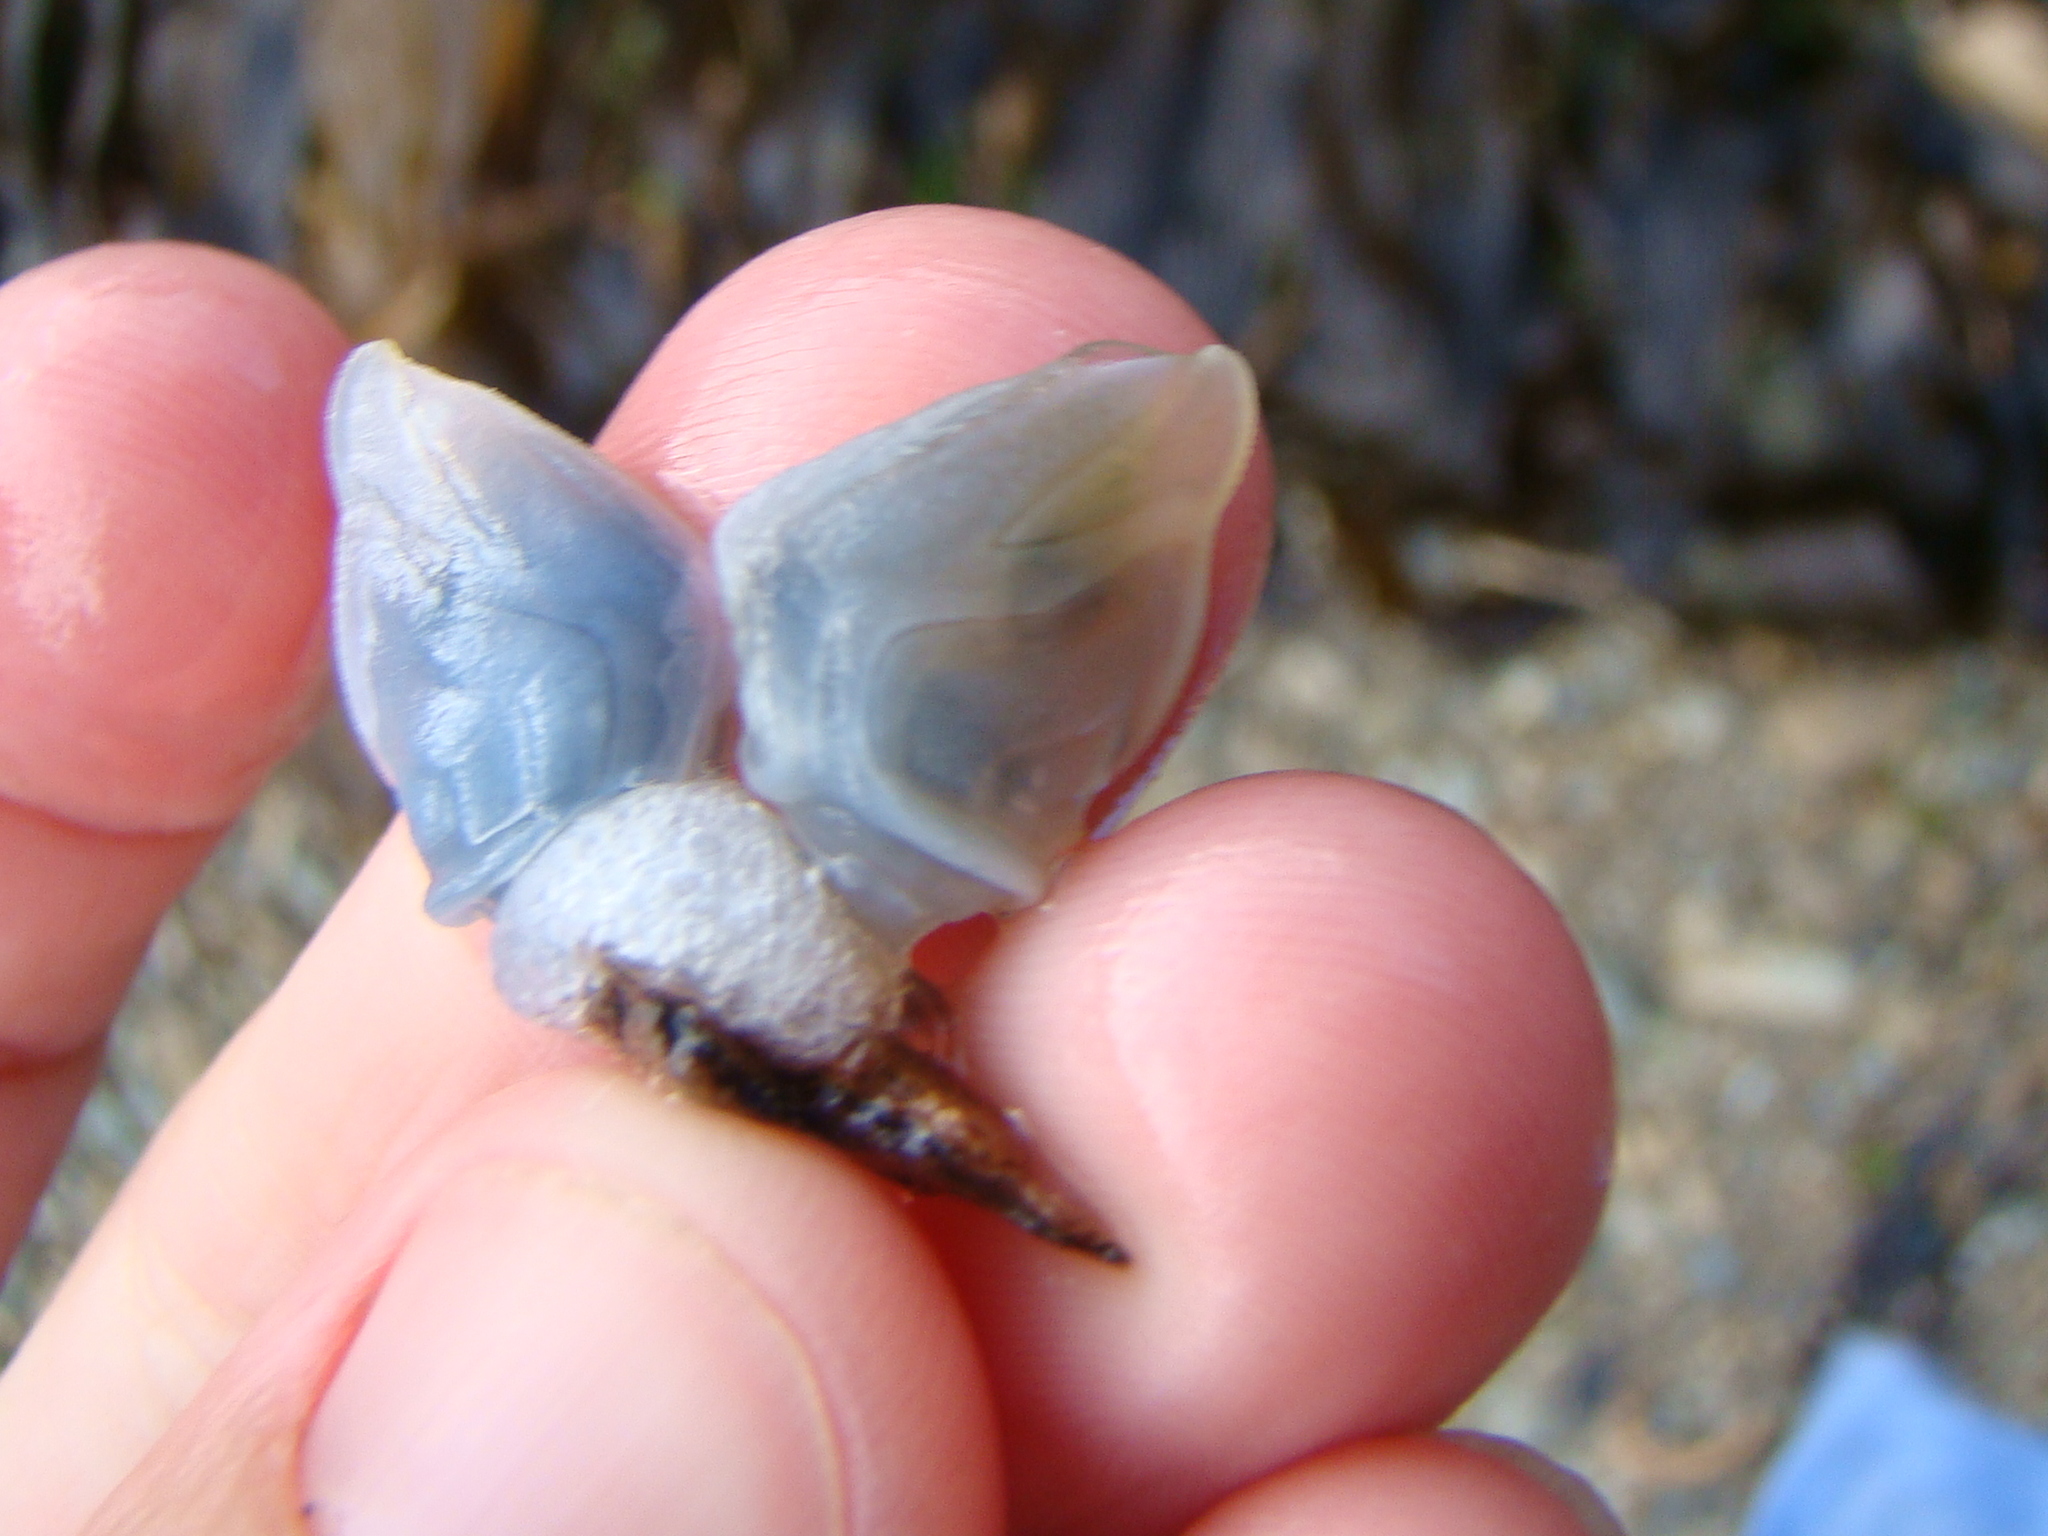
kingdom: Animalia
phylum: Arthropoda
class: Maxillopoda
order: Pedunculata
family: Lepadidae
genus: Dosima
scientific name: Dosima fascicularis
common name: Buoy barnacle
